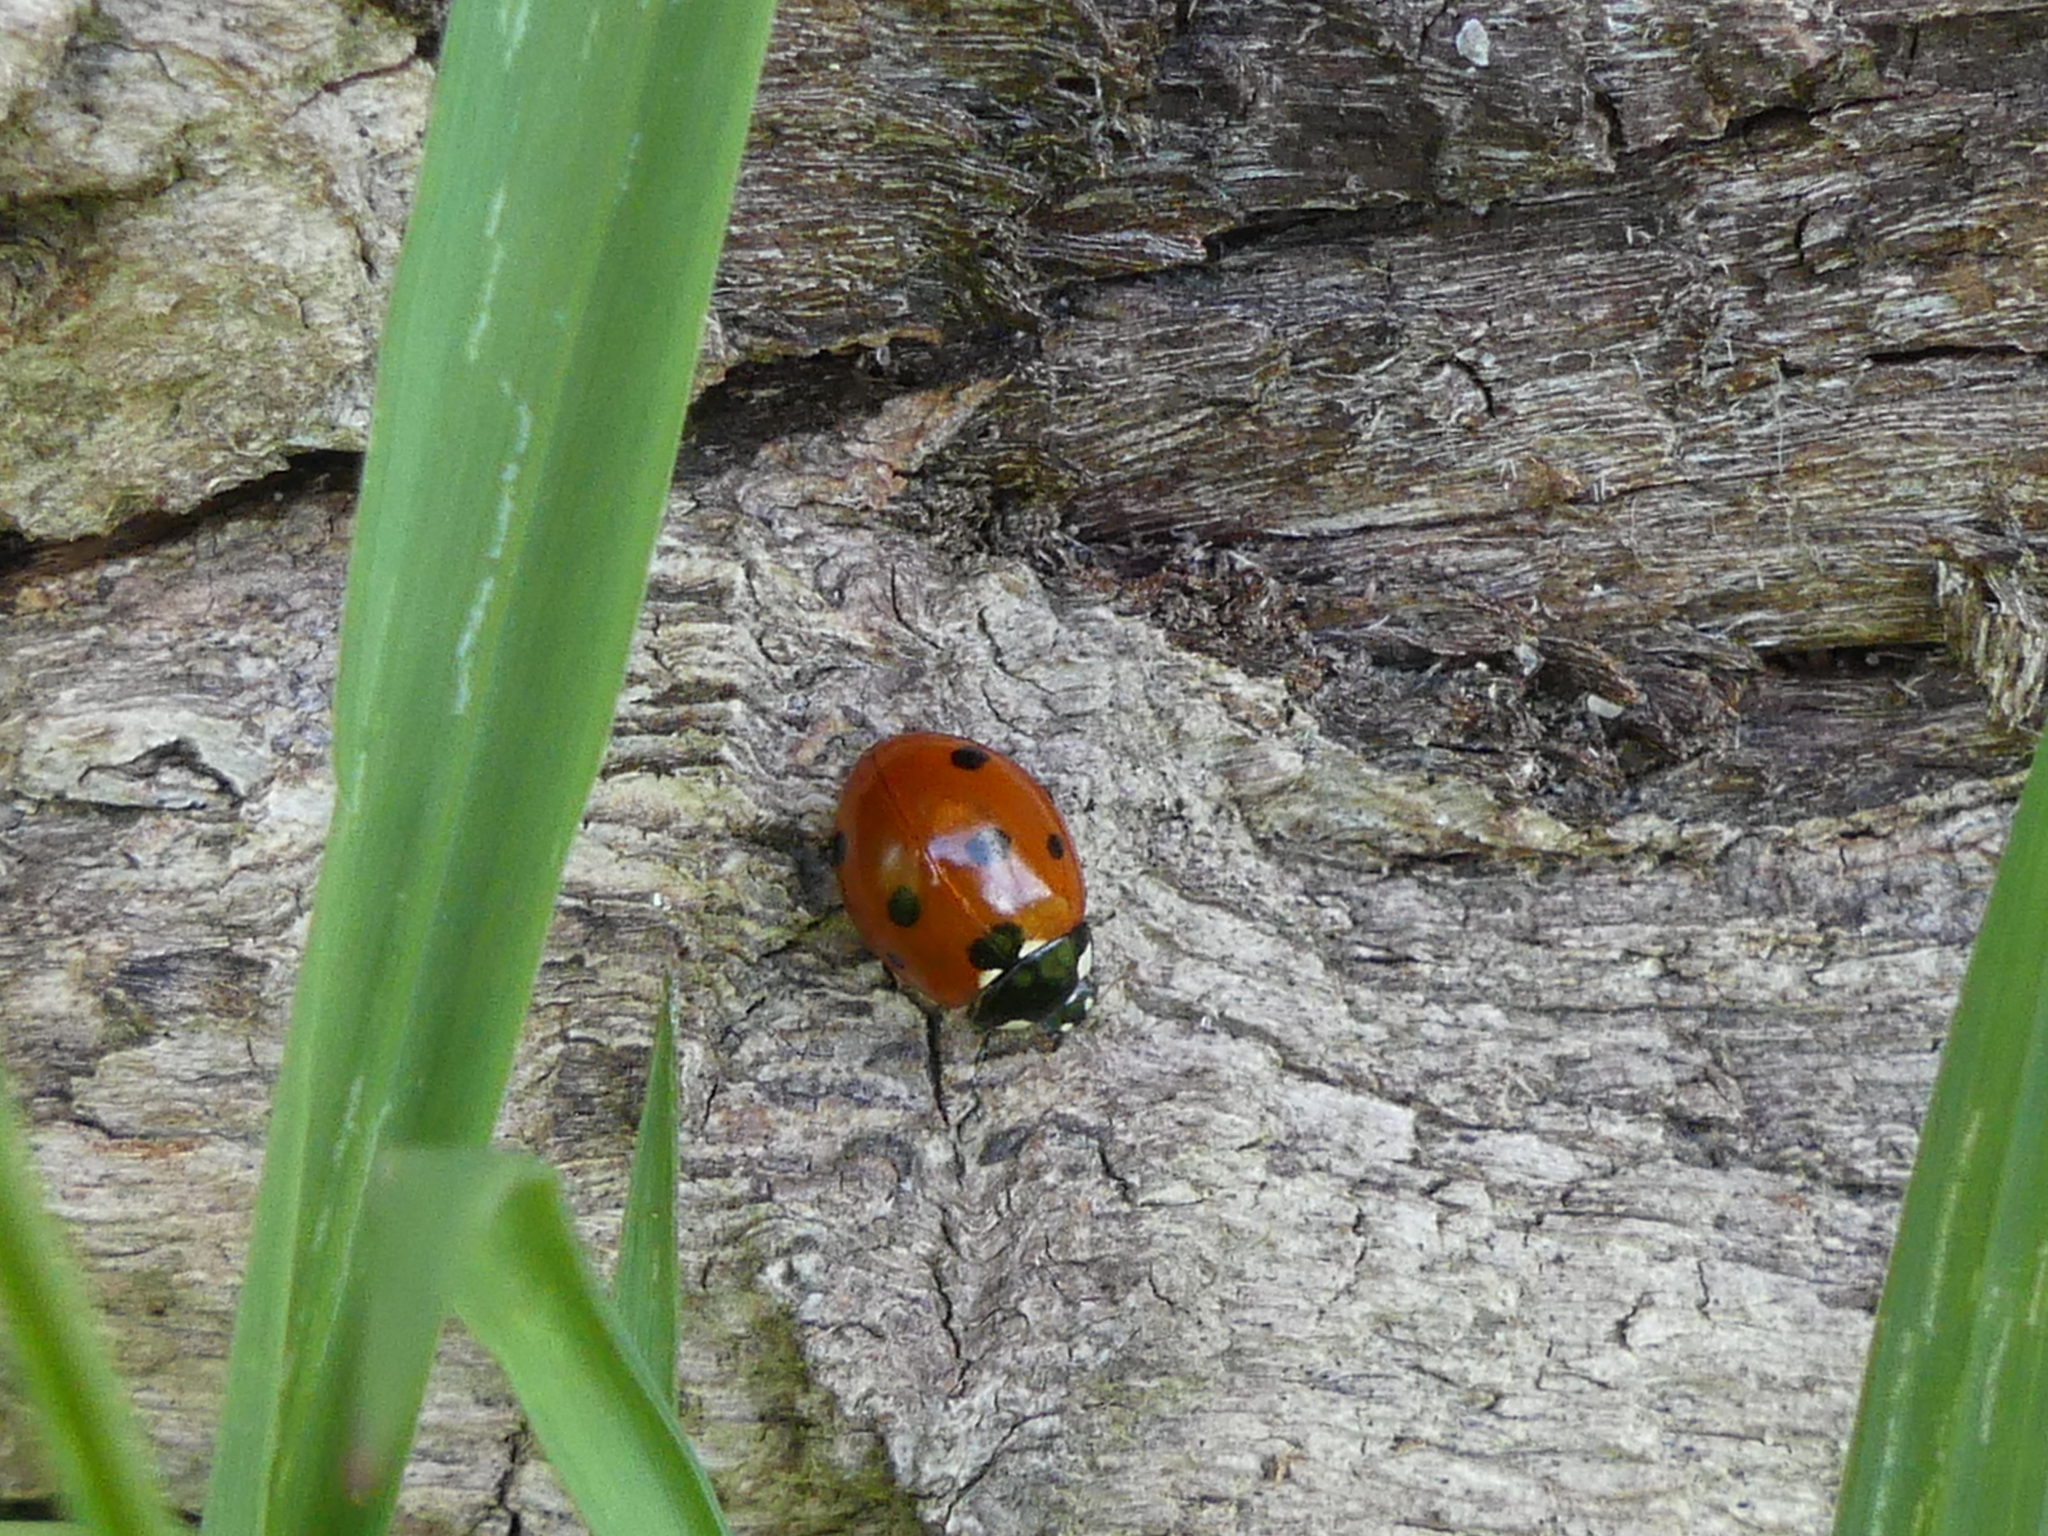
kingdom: Animalia
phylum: Arthropoda
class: Insecta
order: Coleoptera
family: Coccinellidae
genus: Coccinella
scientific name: Coccinella septempunctata
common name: Sevenspotted lady beetle
